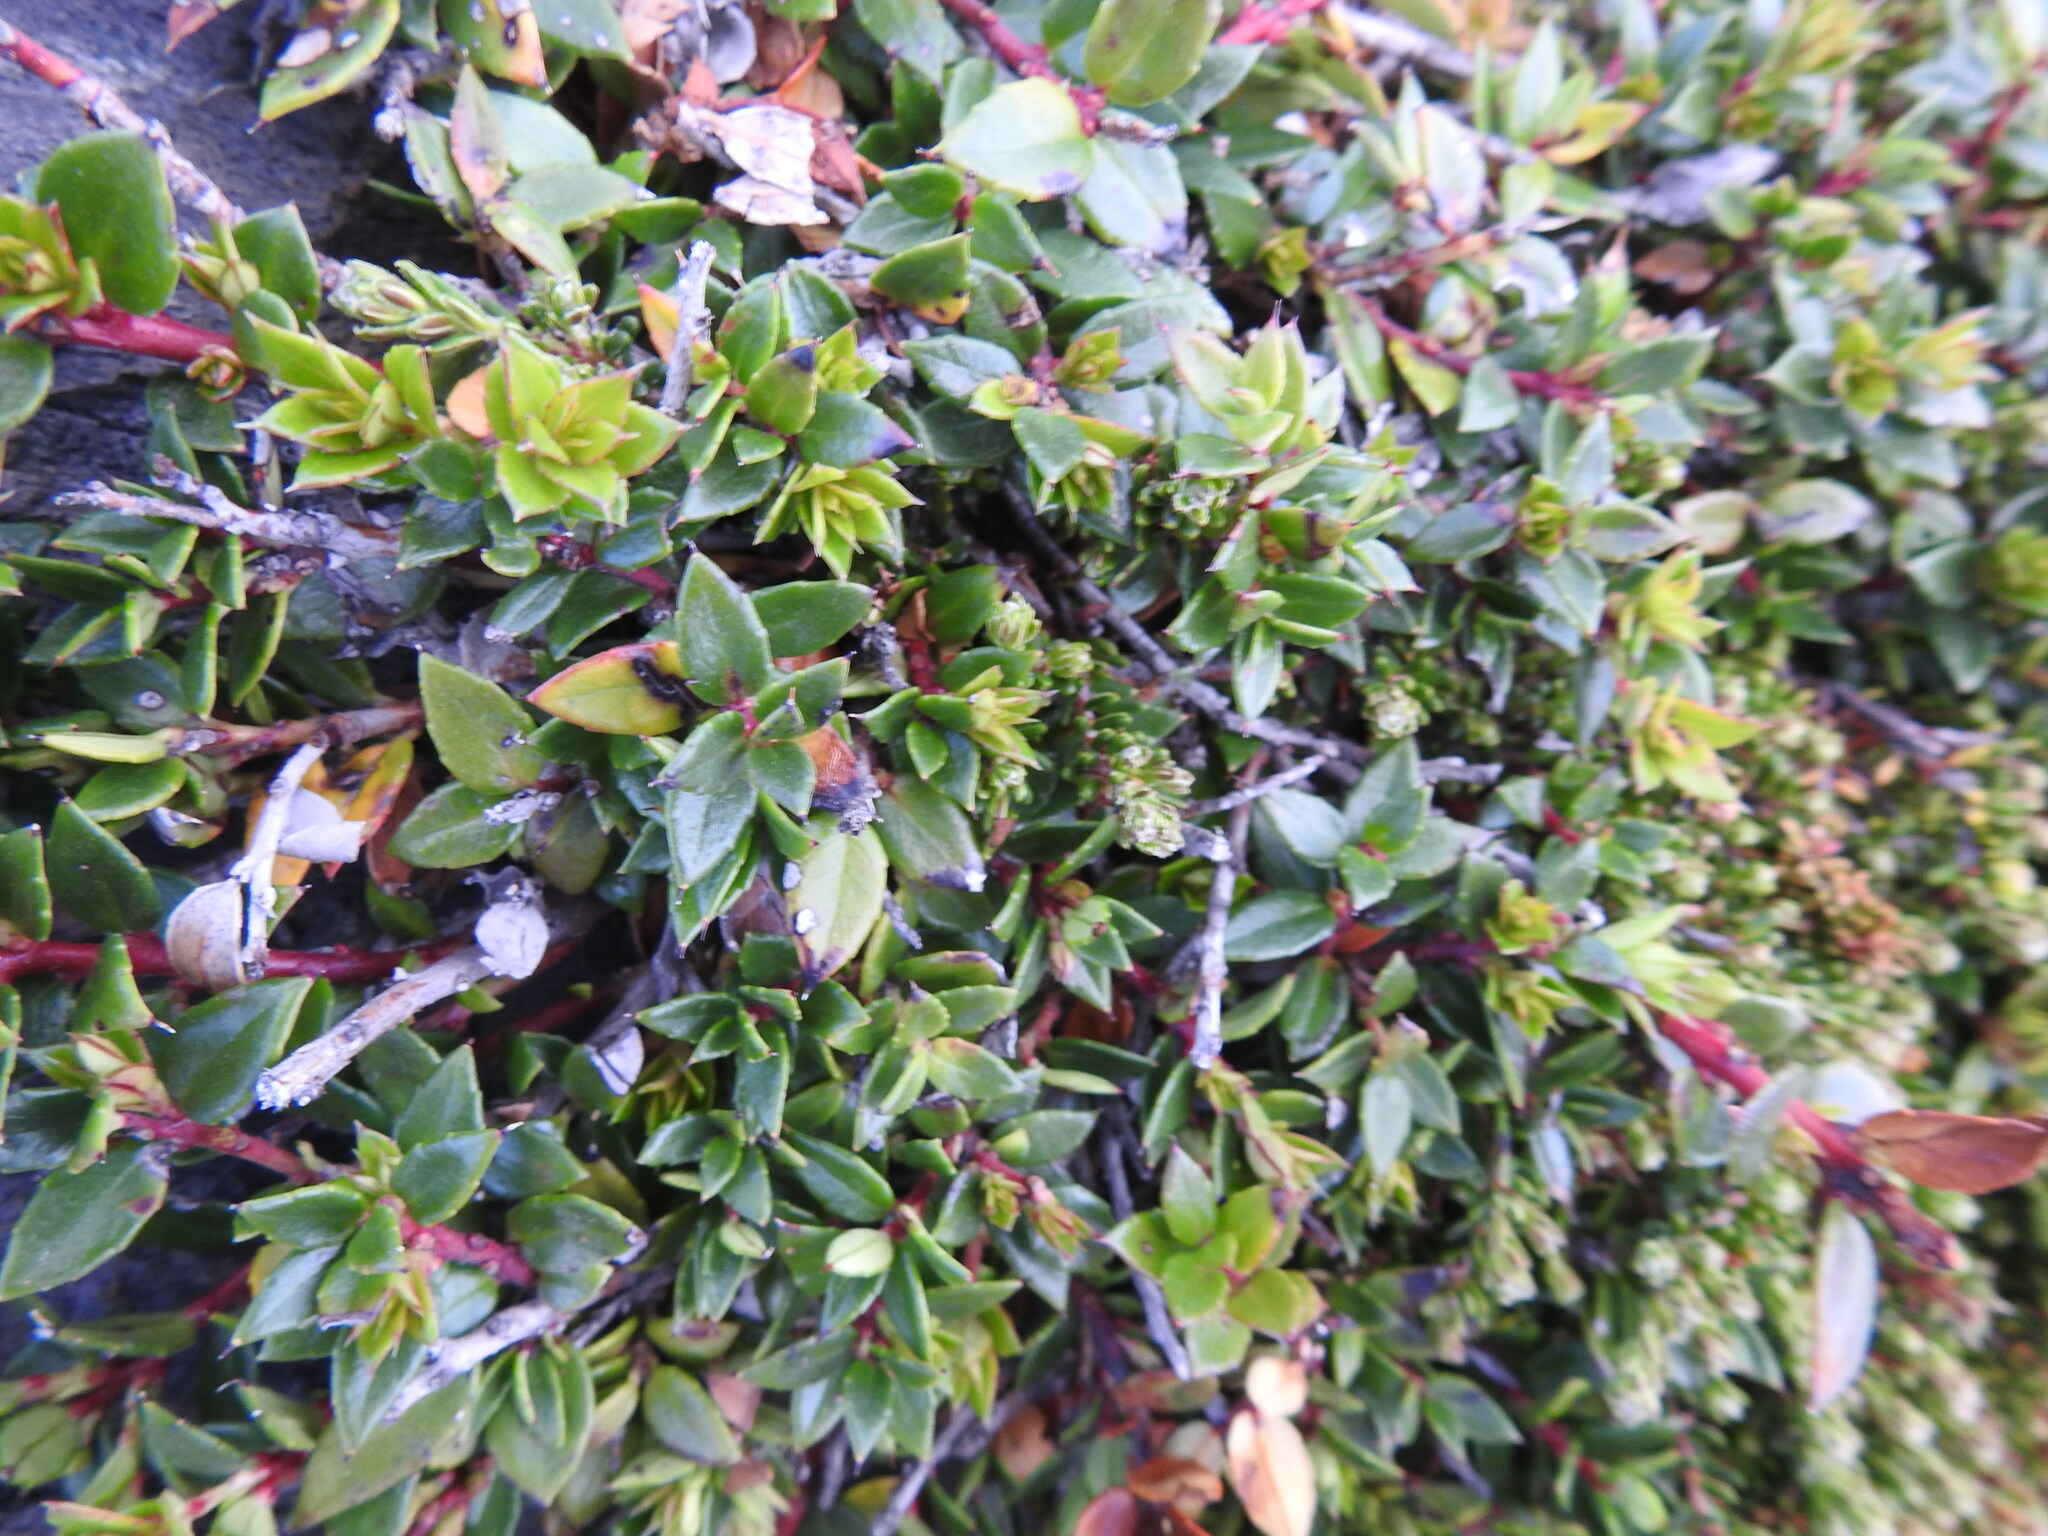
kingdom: Plantae
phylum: Tracheophyta
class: Magnoliopsida
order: Ericales
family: Ericaceae
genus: Gaultheria
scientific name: Gaultheria mucronata
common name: Prickly heath
